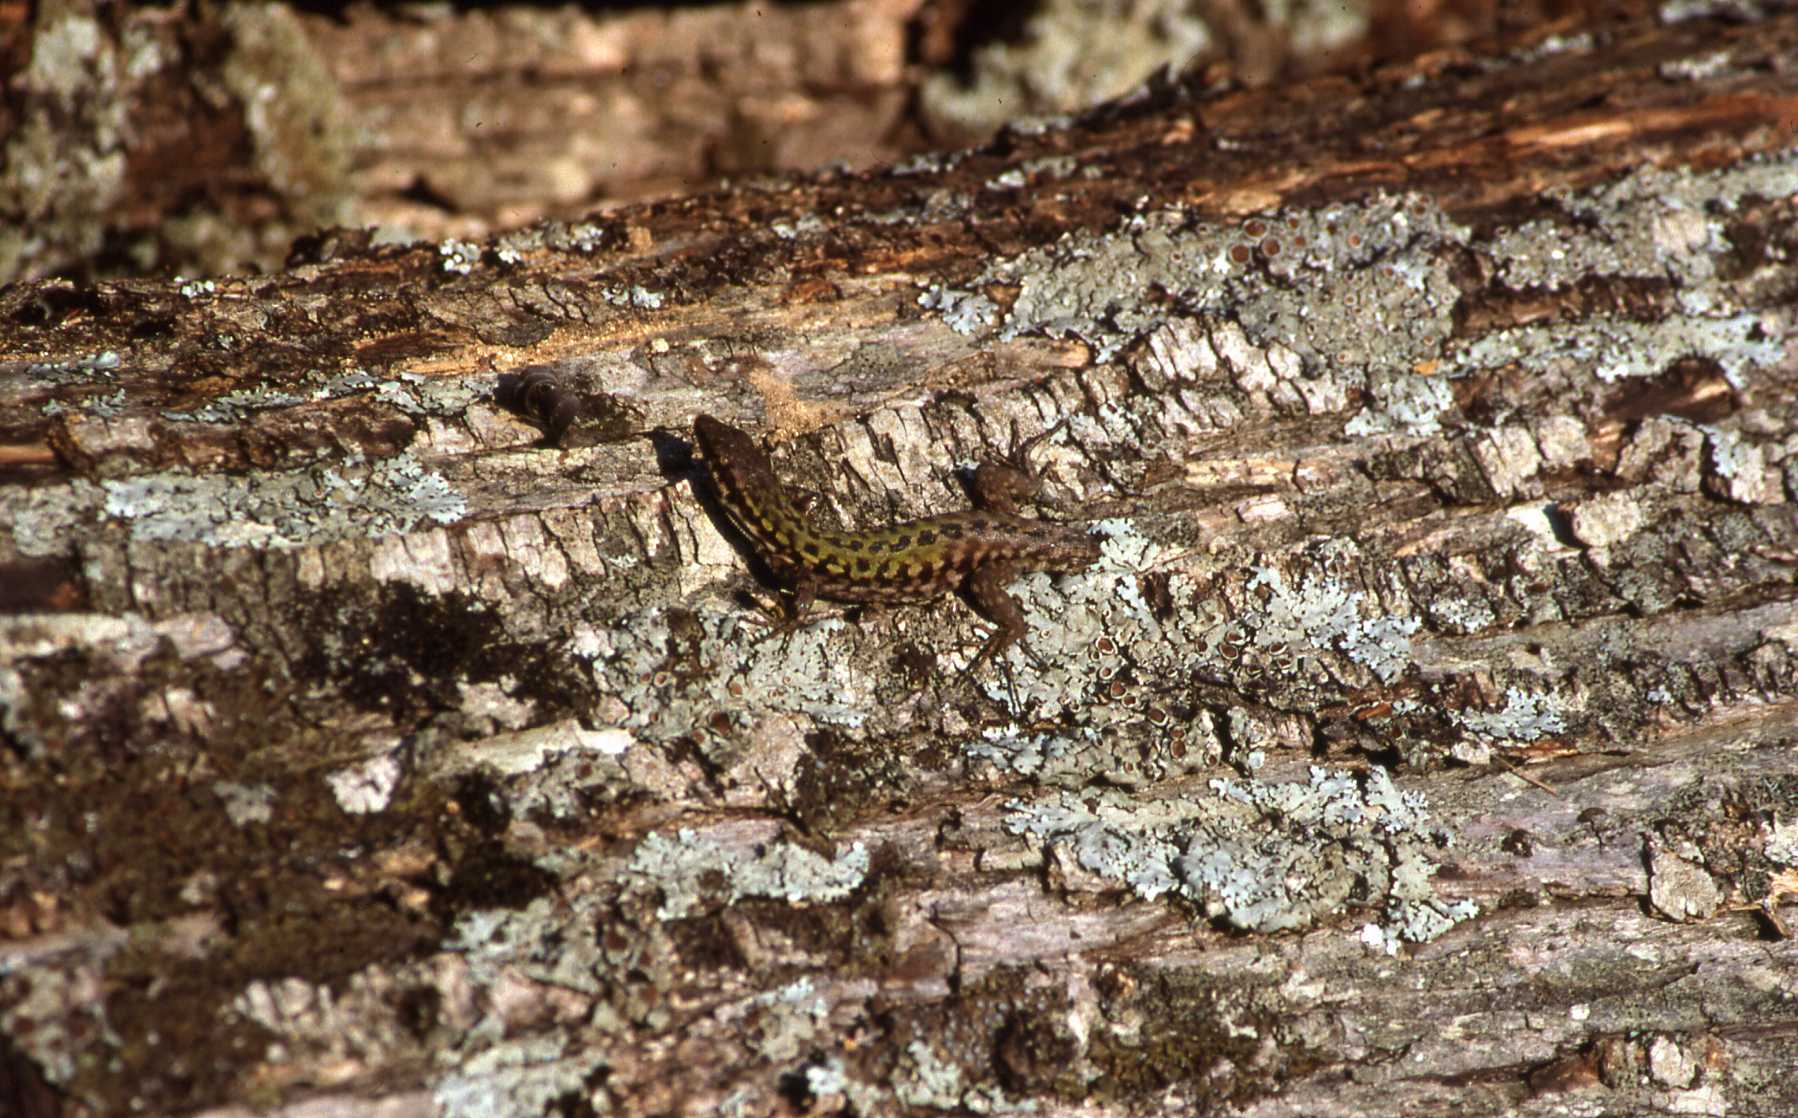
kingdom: Animalia
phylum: Chordata
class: Squamata
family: Lacertidae
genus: Podarcis
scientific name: Podarcis siculus
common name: Italian wall lizard
